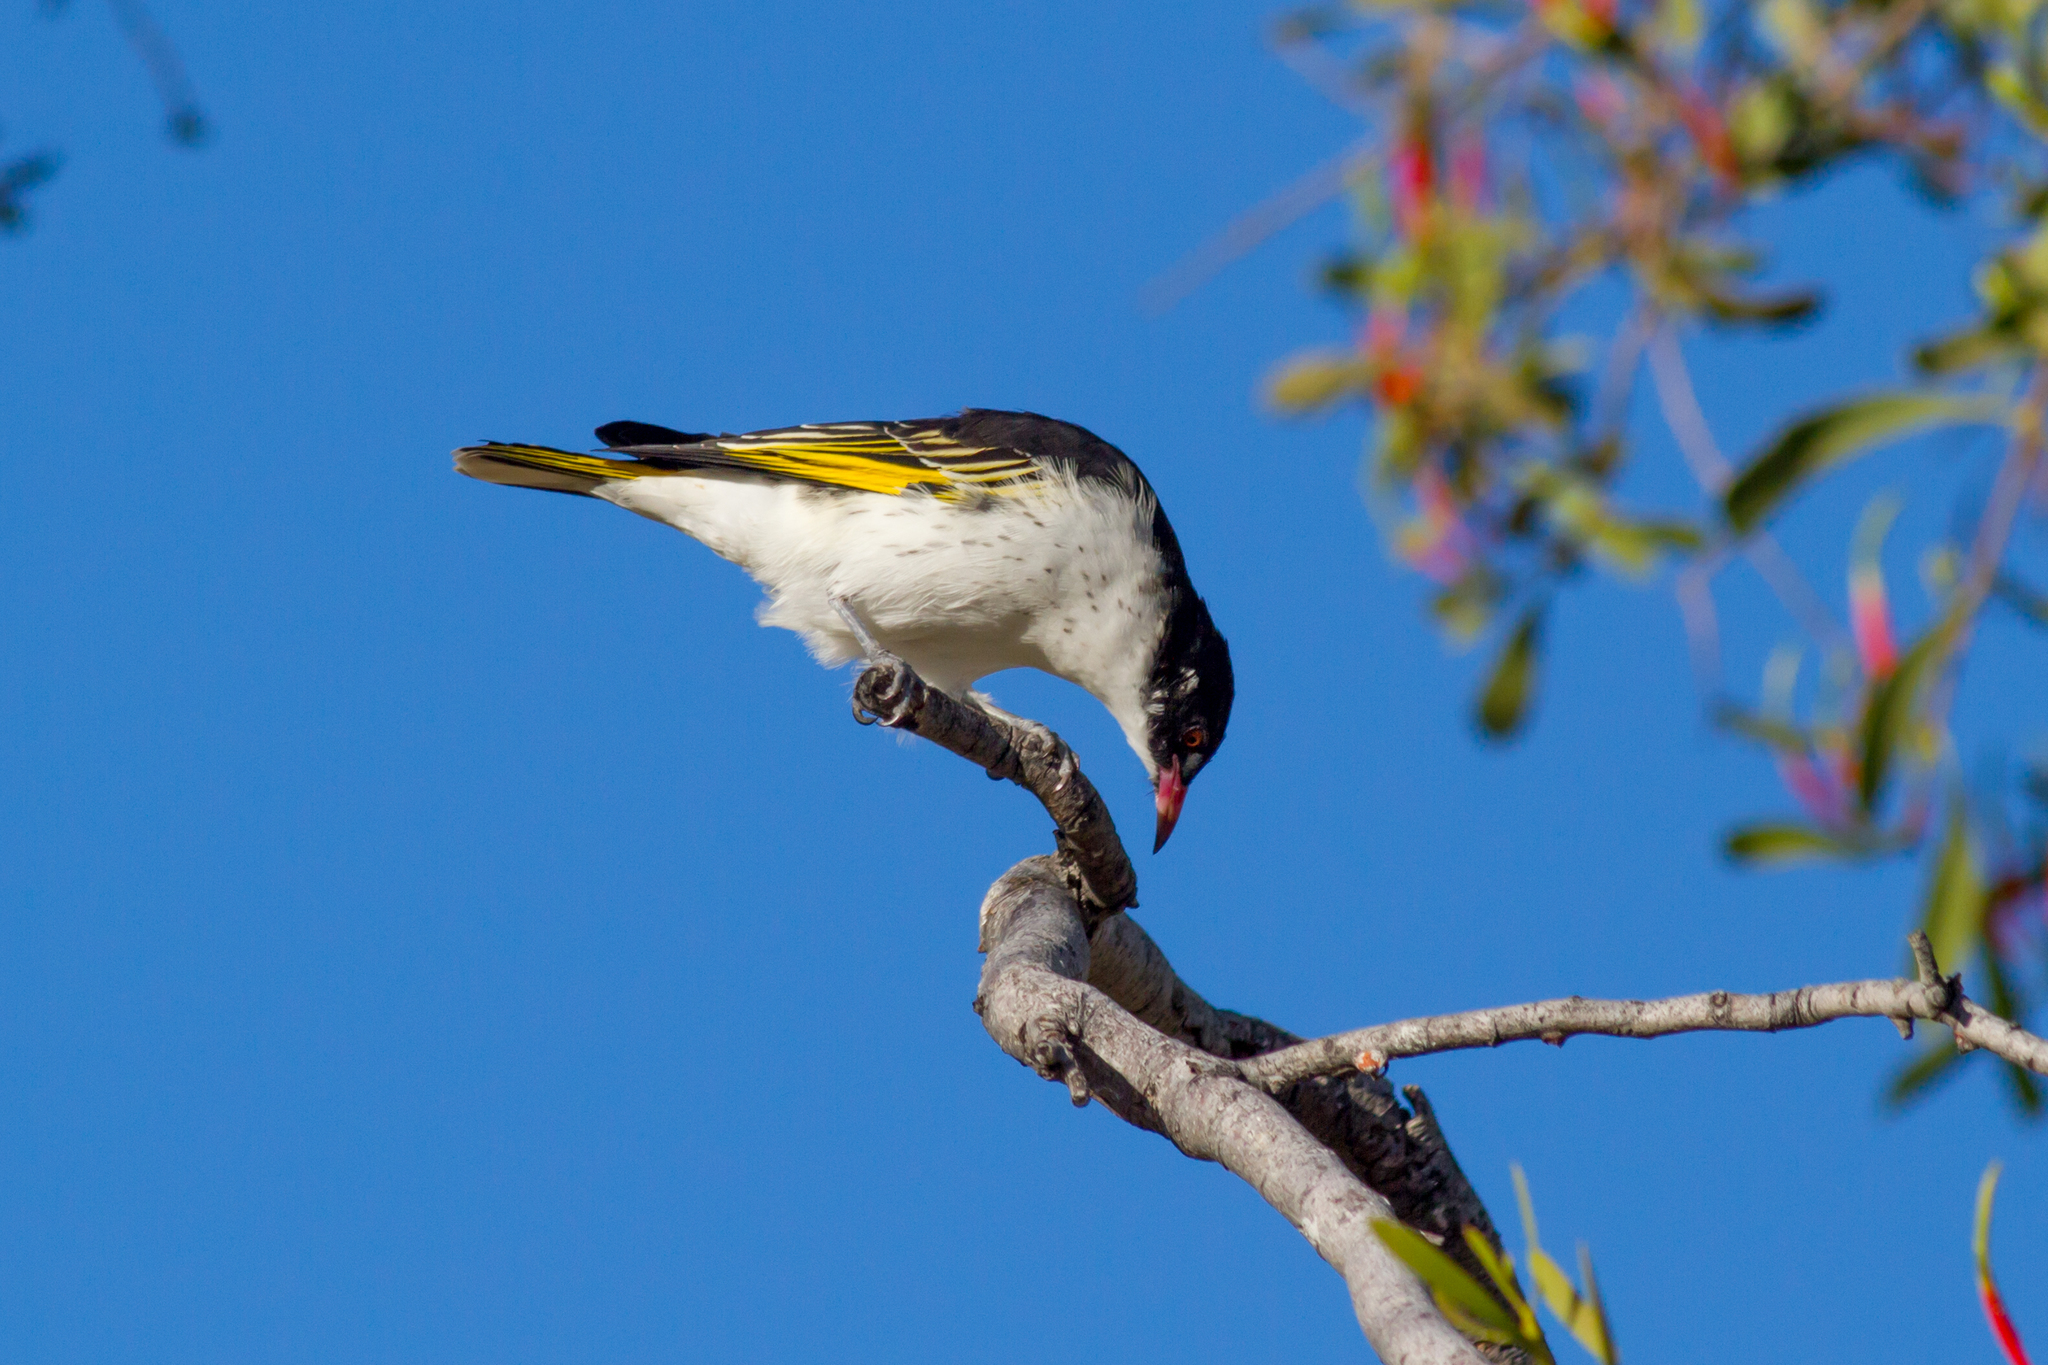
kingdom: Animalia
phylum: Chordata
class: Aves
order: Passeriformes
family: Meliphagidae
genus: Grantiella
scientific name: Grantiella picta
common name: Painted honeyeater
